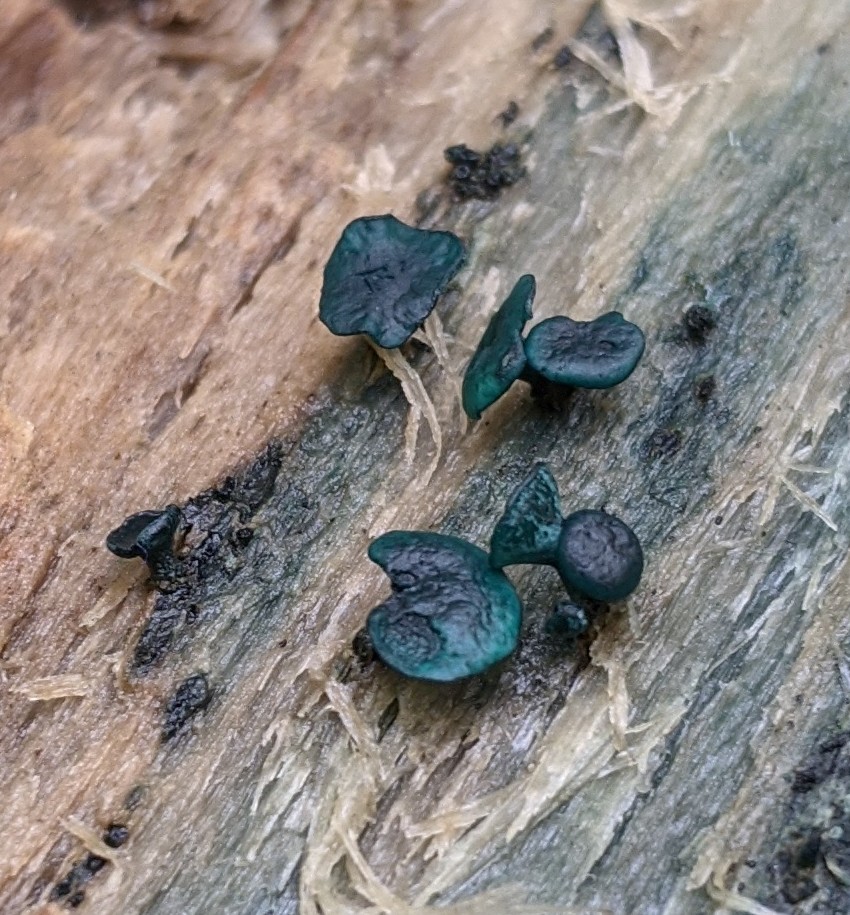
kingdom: Fungi
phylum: Ascomycota
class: Leotiomycetes
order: Helotiales
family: Chlorociboriaceae
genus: Chlorociboria
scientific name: Chlorociboria aeruginascens
